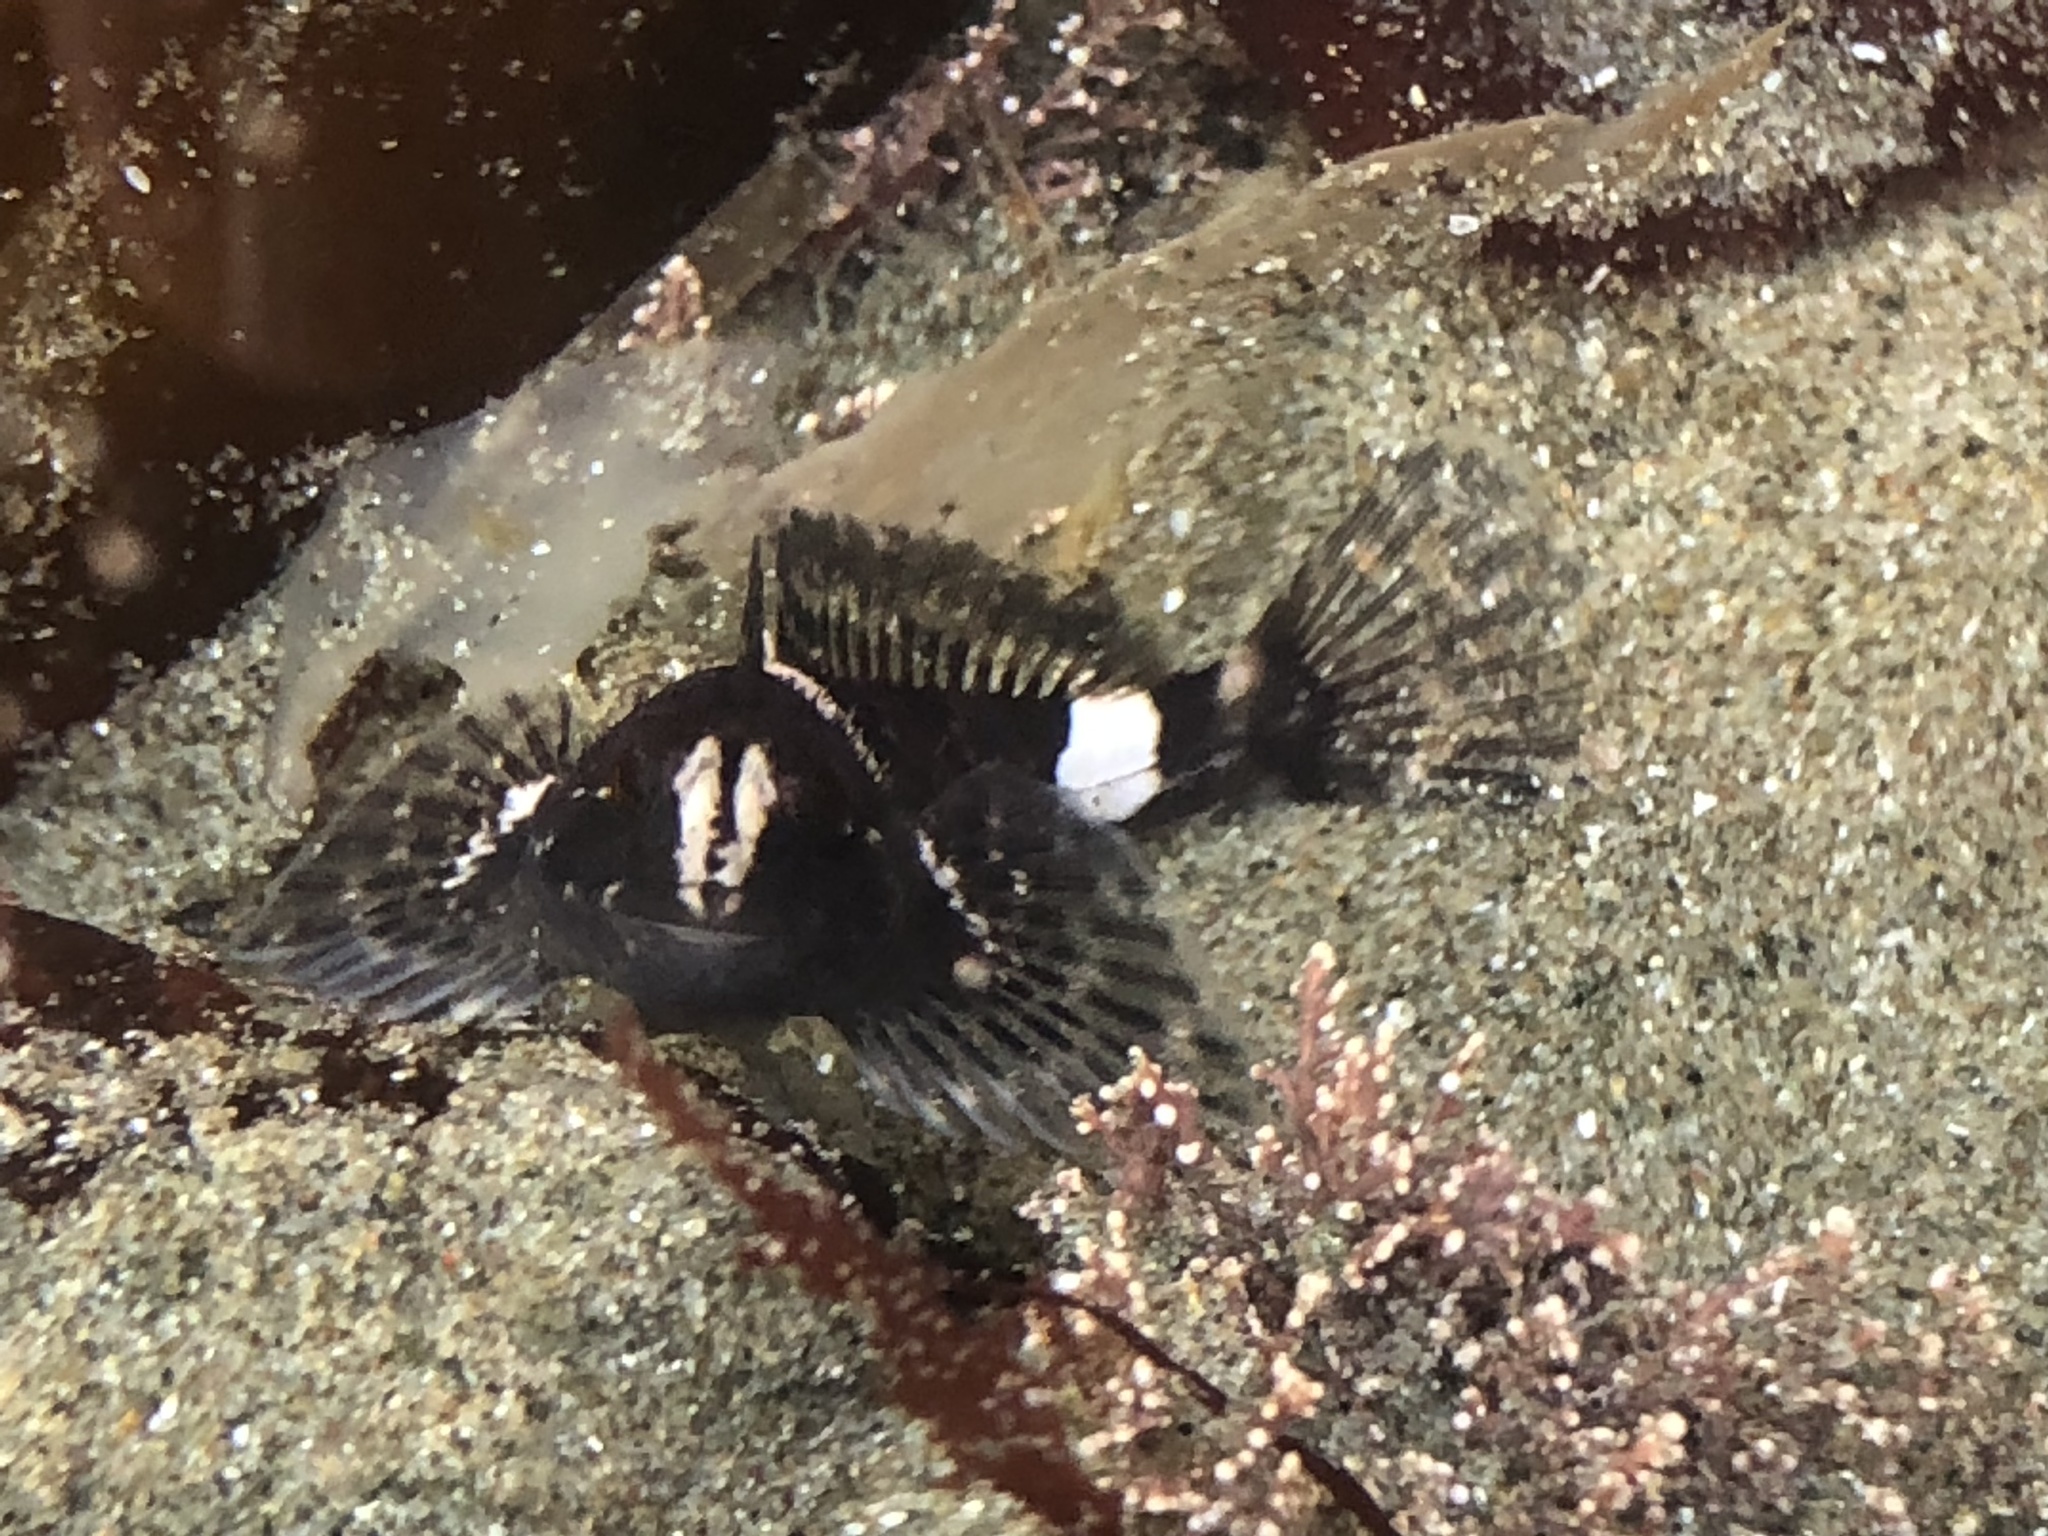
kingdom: Animalia
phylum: Chordata
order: Scorpaeniformes
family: Cottidae
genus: Clinocottus
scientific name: Clinocottus globiceps
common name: Mosshead sculpin
